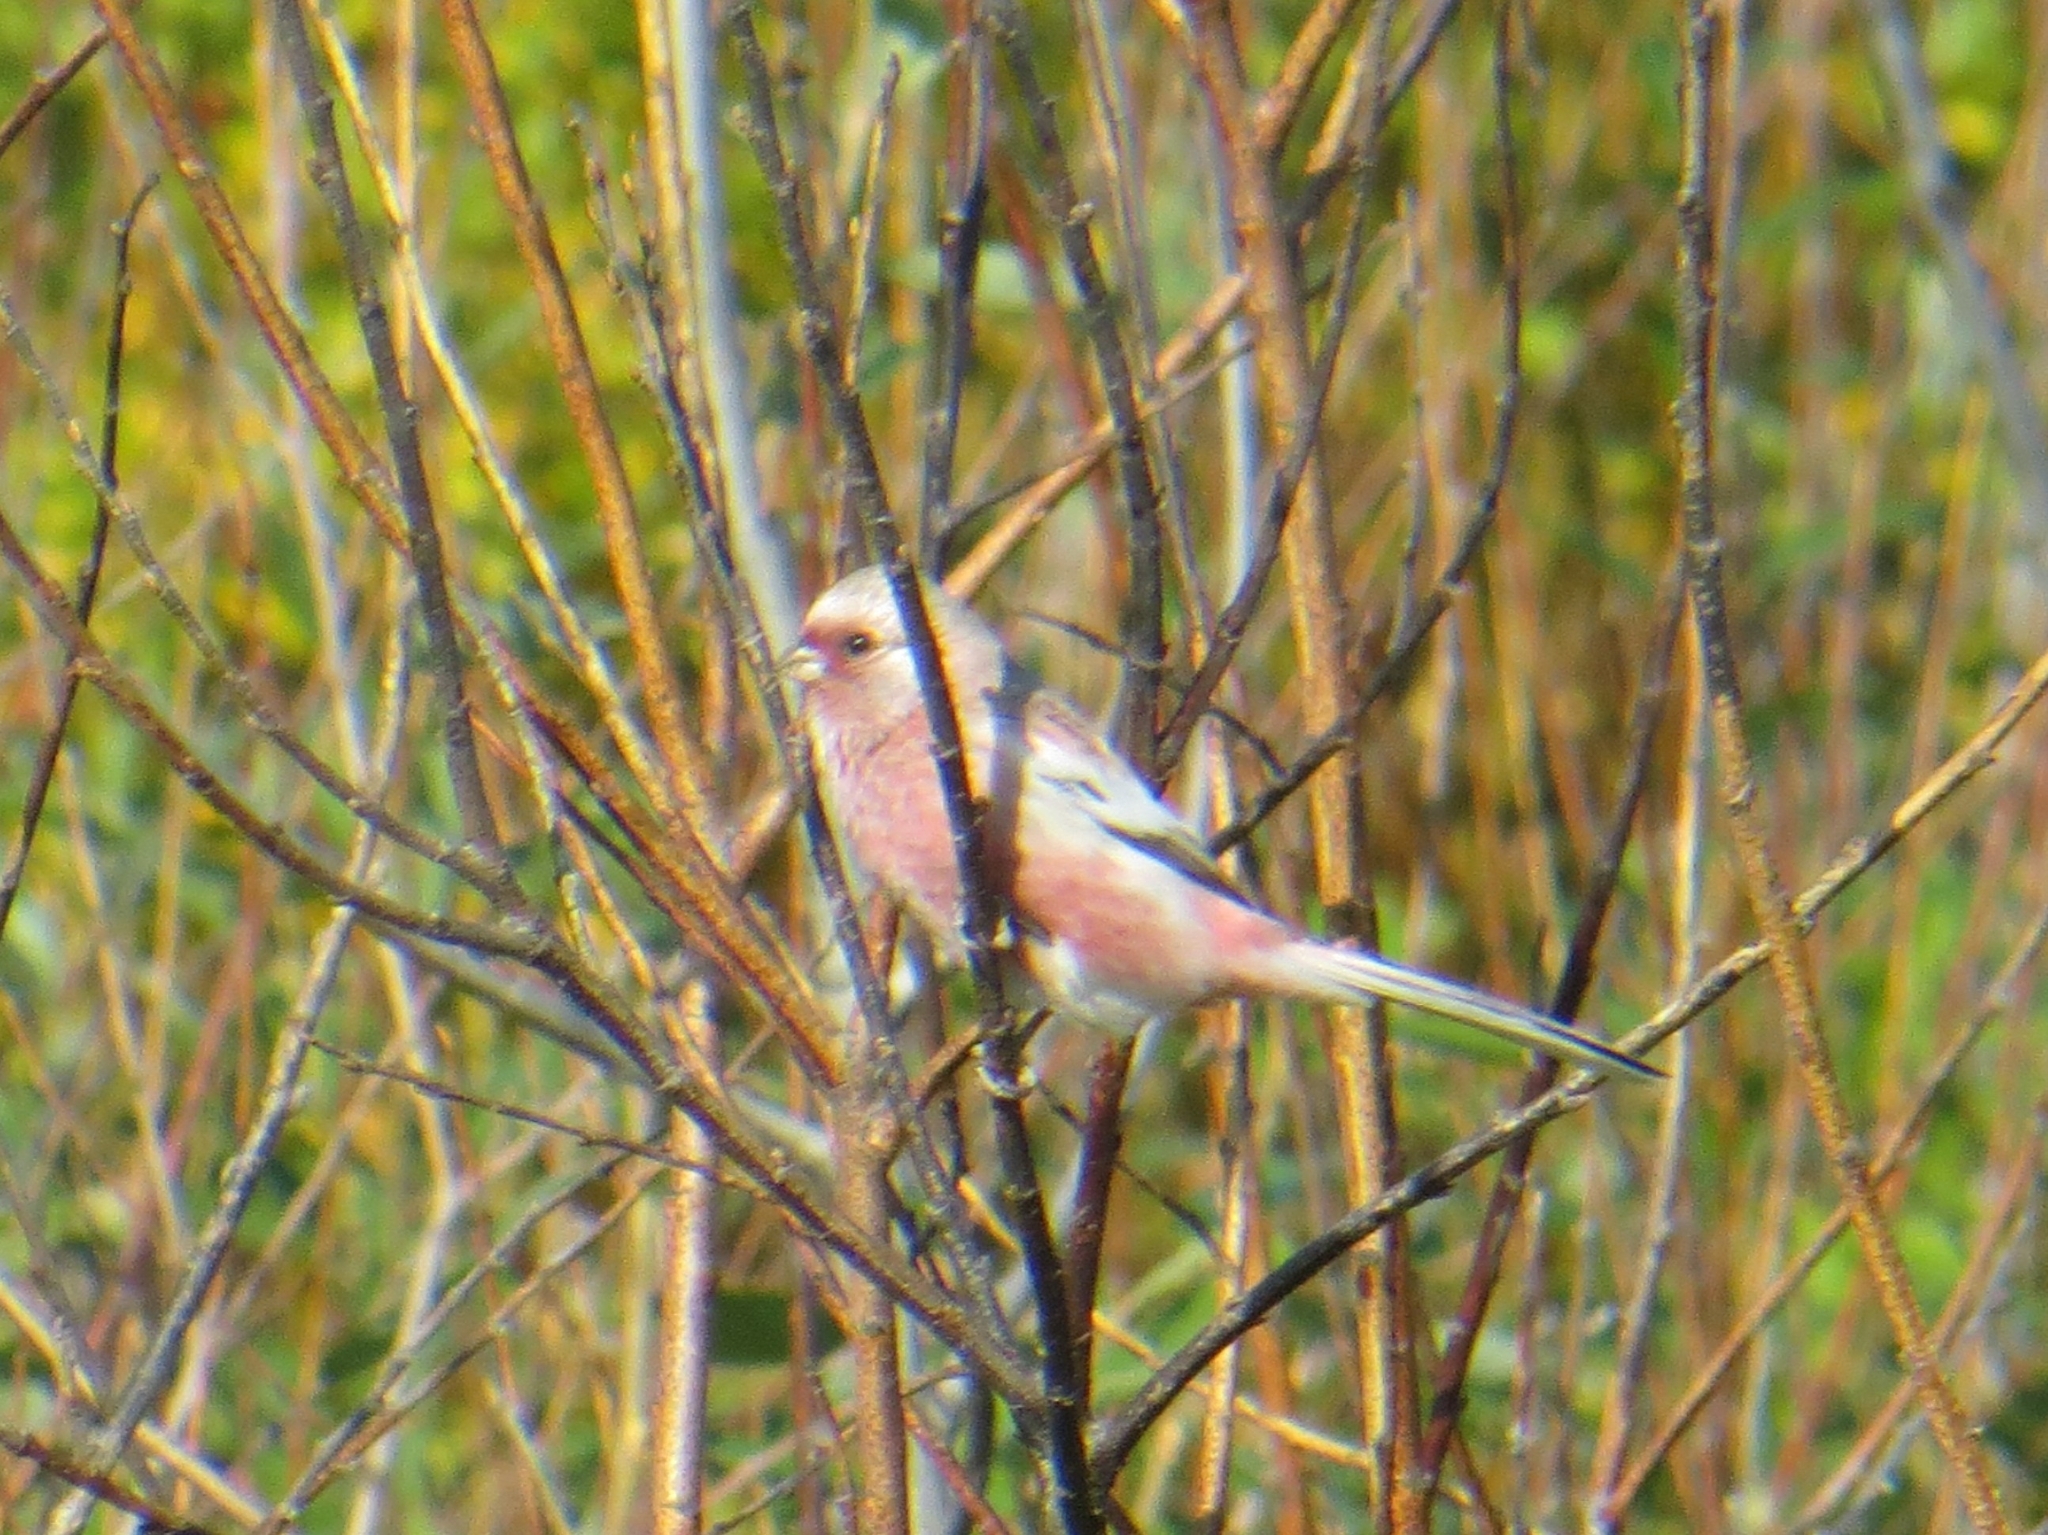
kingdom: Animalia
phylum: Chordata
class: Aves
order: Passeriformes
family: Fringillidae
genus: Carpodacus
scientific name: Carpodacus sibiricus
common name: Long-tailed rosefinch
